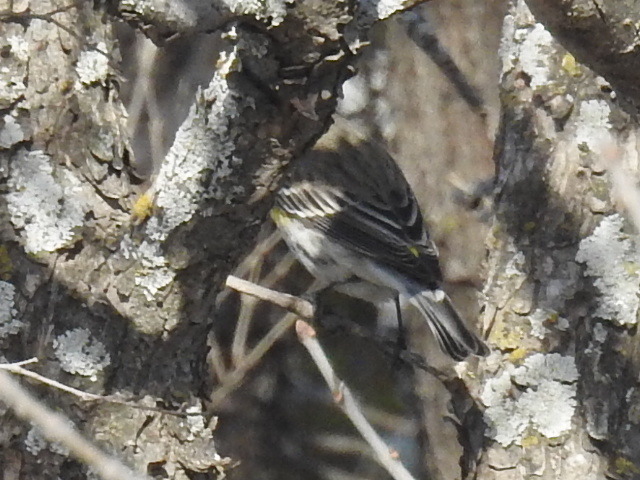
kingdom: Animalia
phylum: Chordata
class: Aves
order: Passeriformes
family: Parulidae
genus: Setophaga
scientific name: Setophaga coronata
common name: Myrtle warbler
